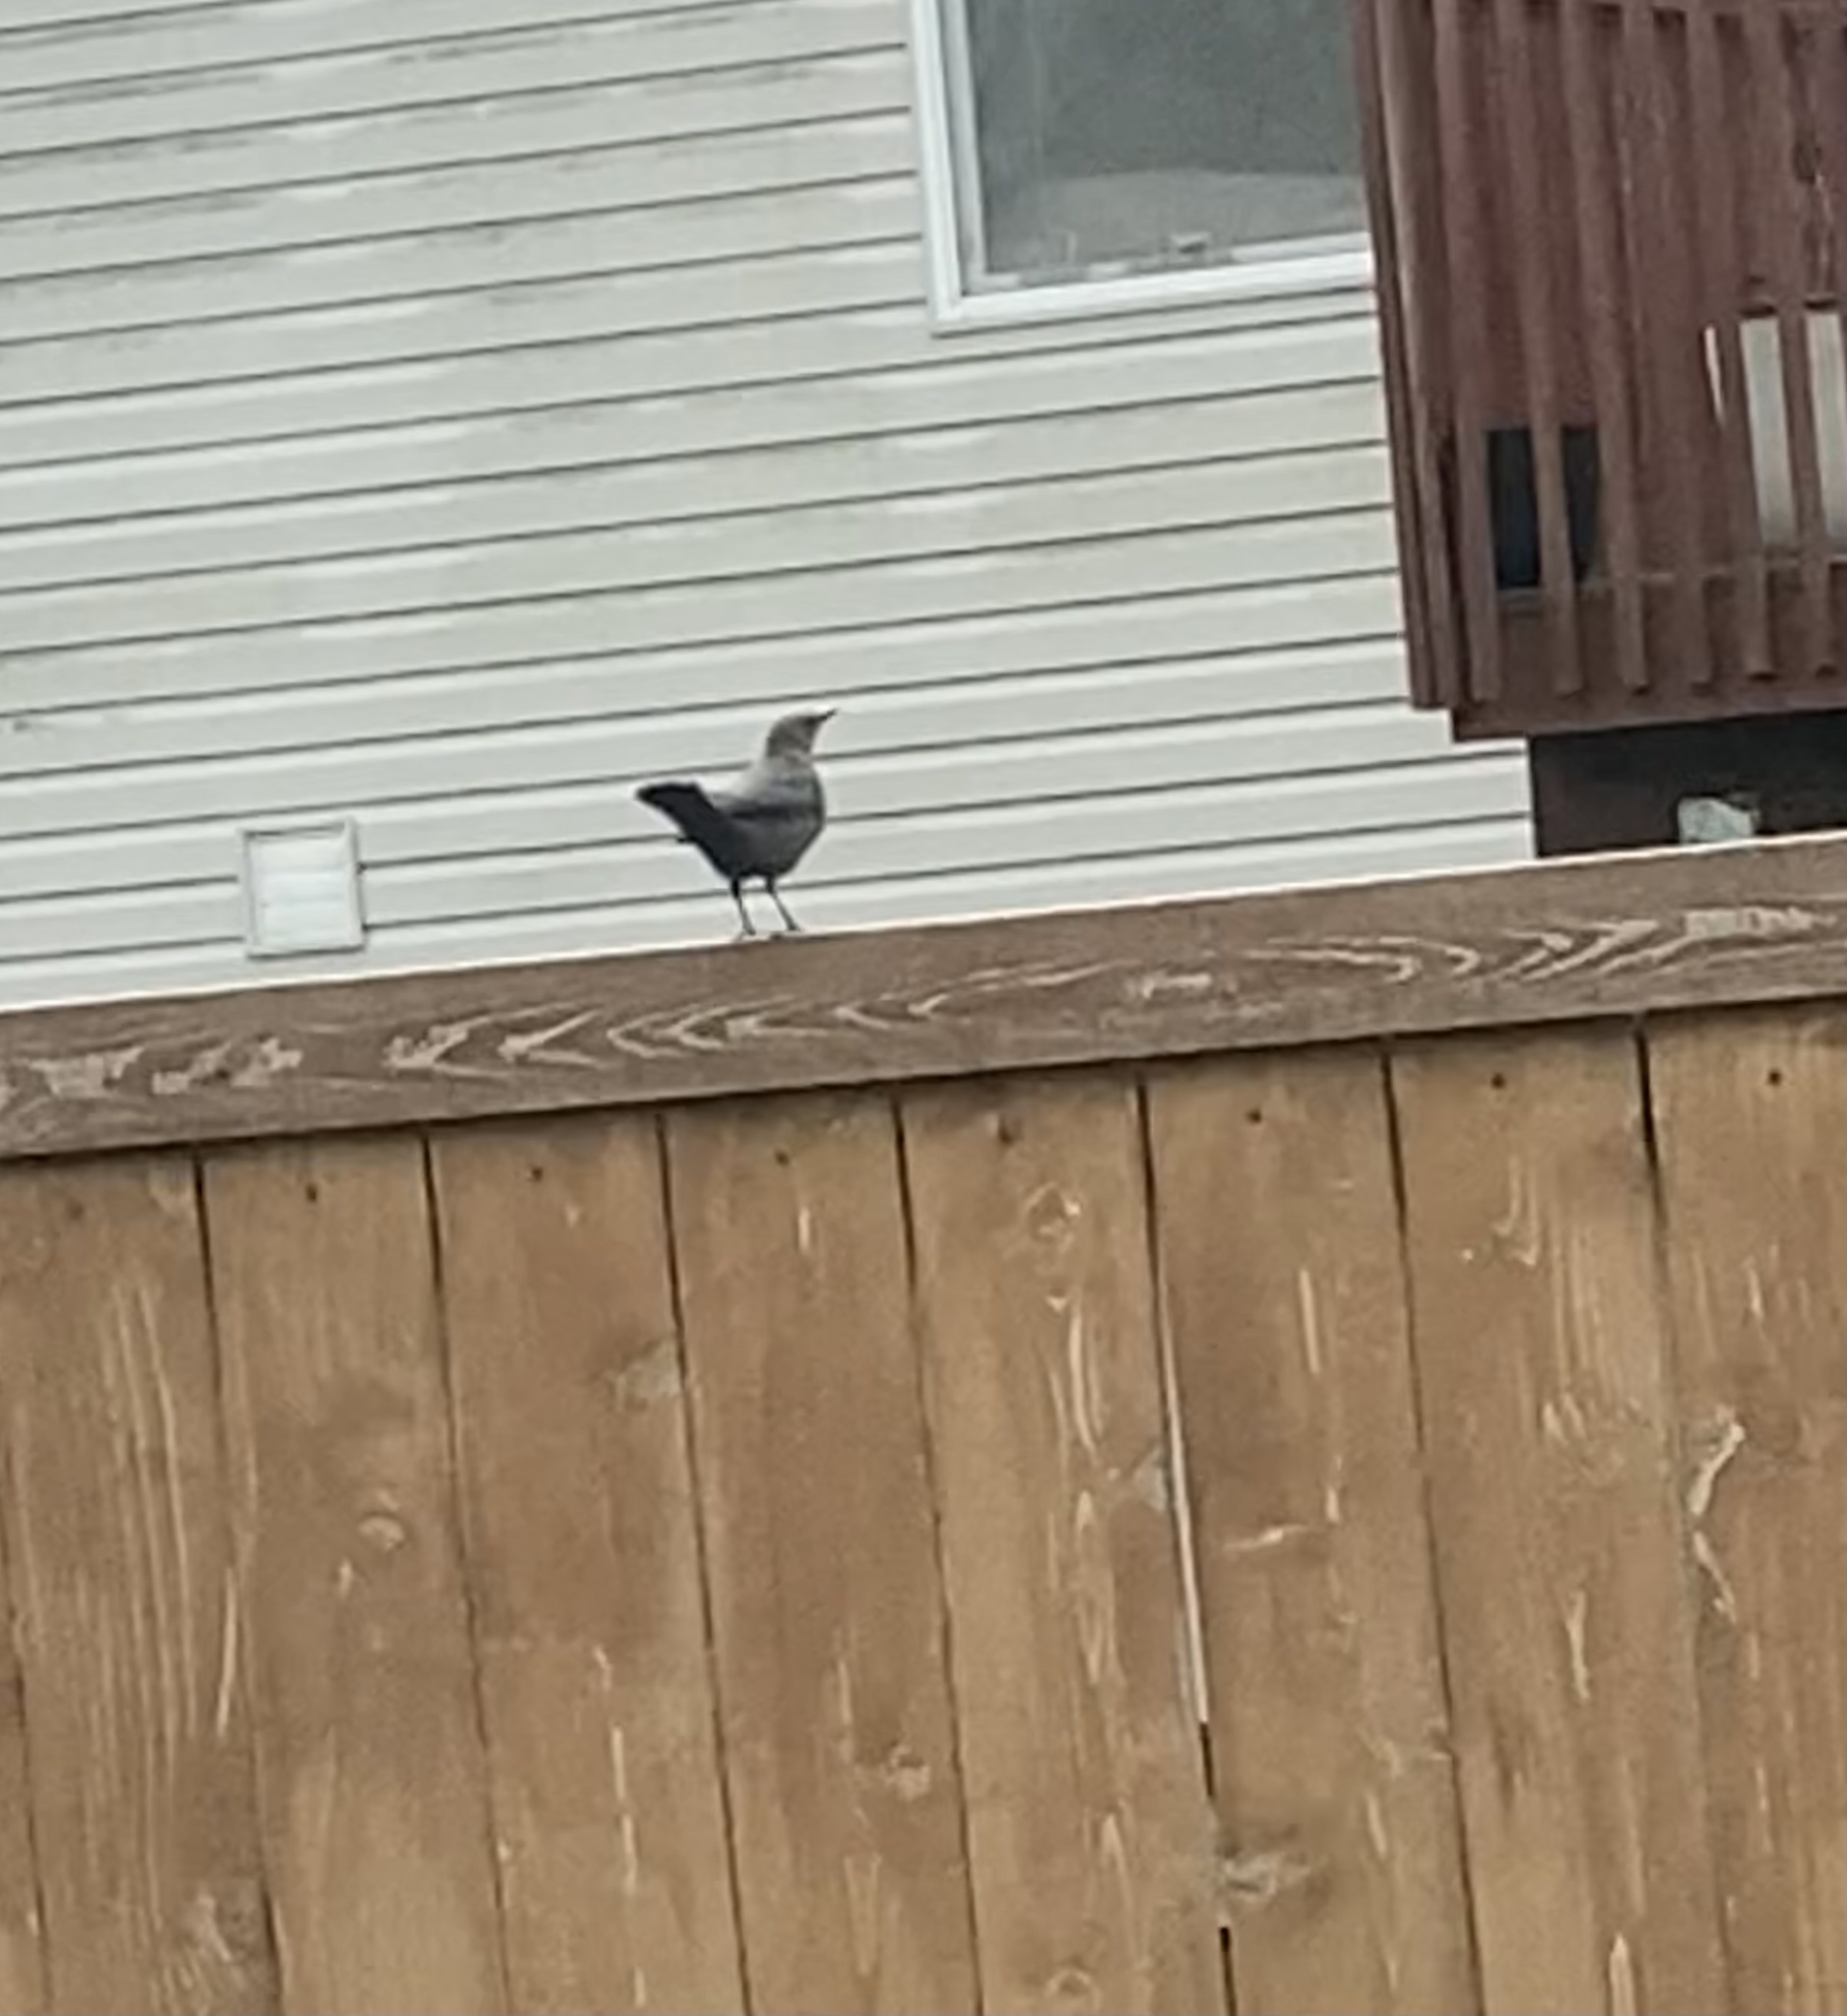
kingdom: Animalia
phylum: Chordata
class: Aves
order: Passeriformes
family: Icteridae
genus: Euphagus
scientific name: Euphagus cyanocephalus
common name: Brewer's blackbird
